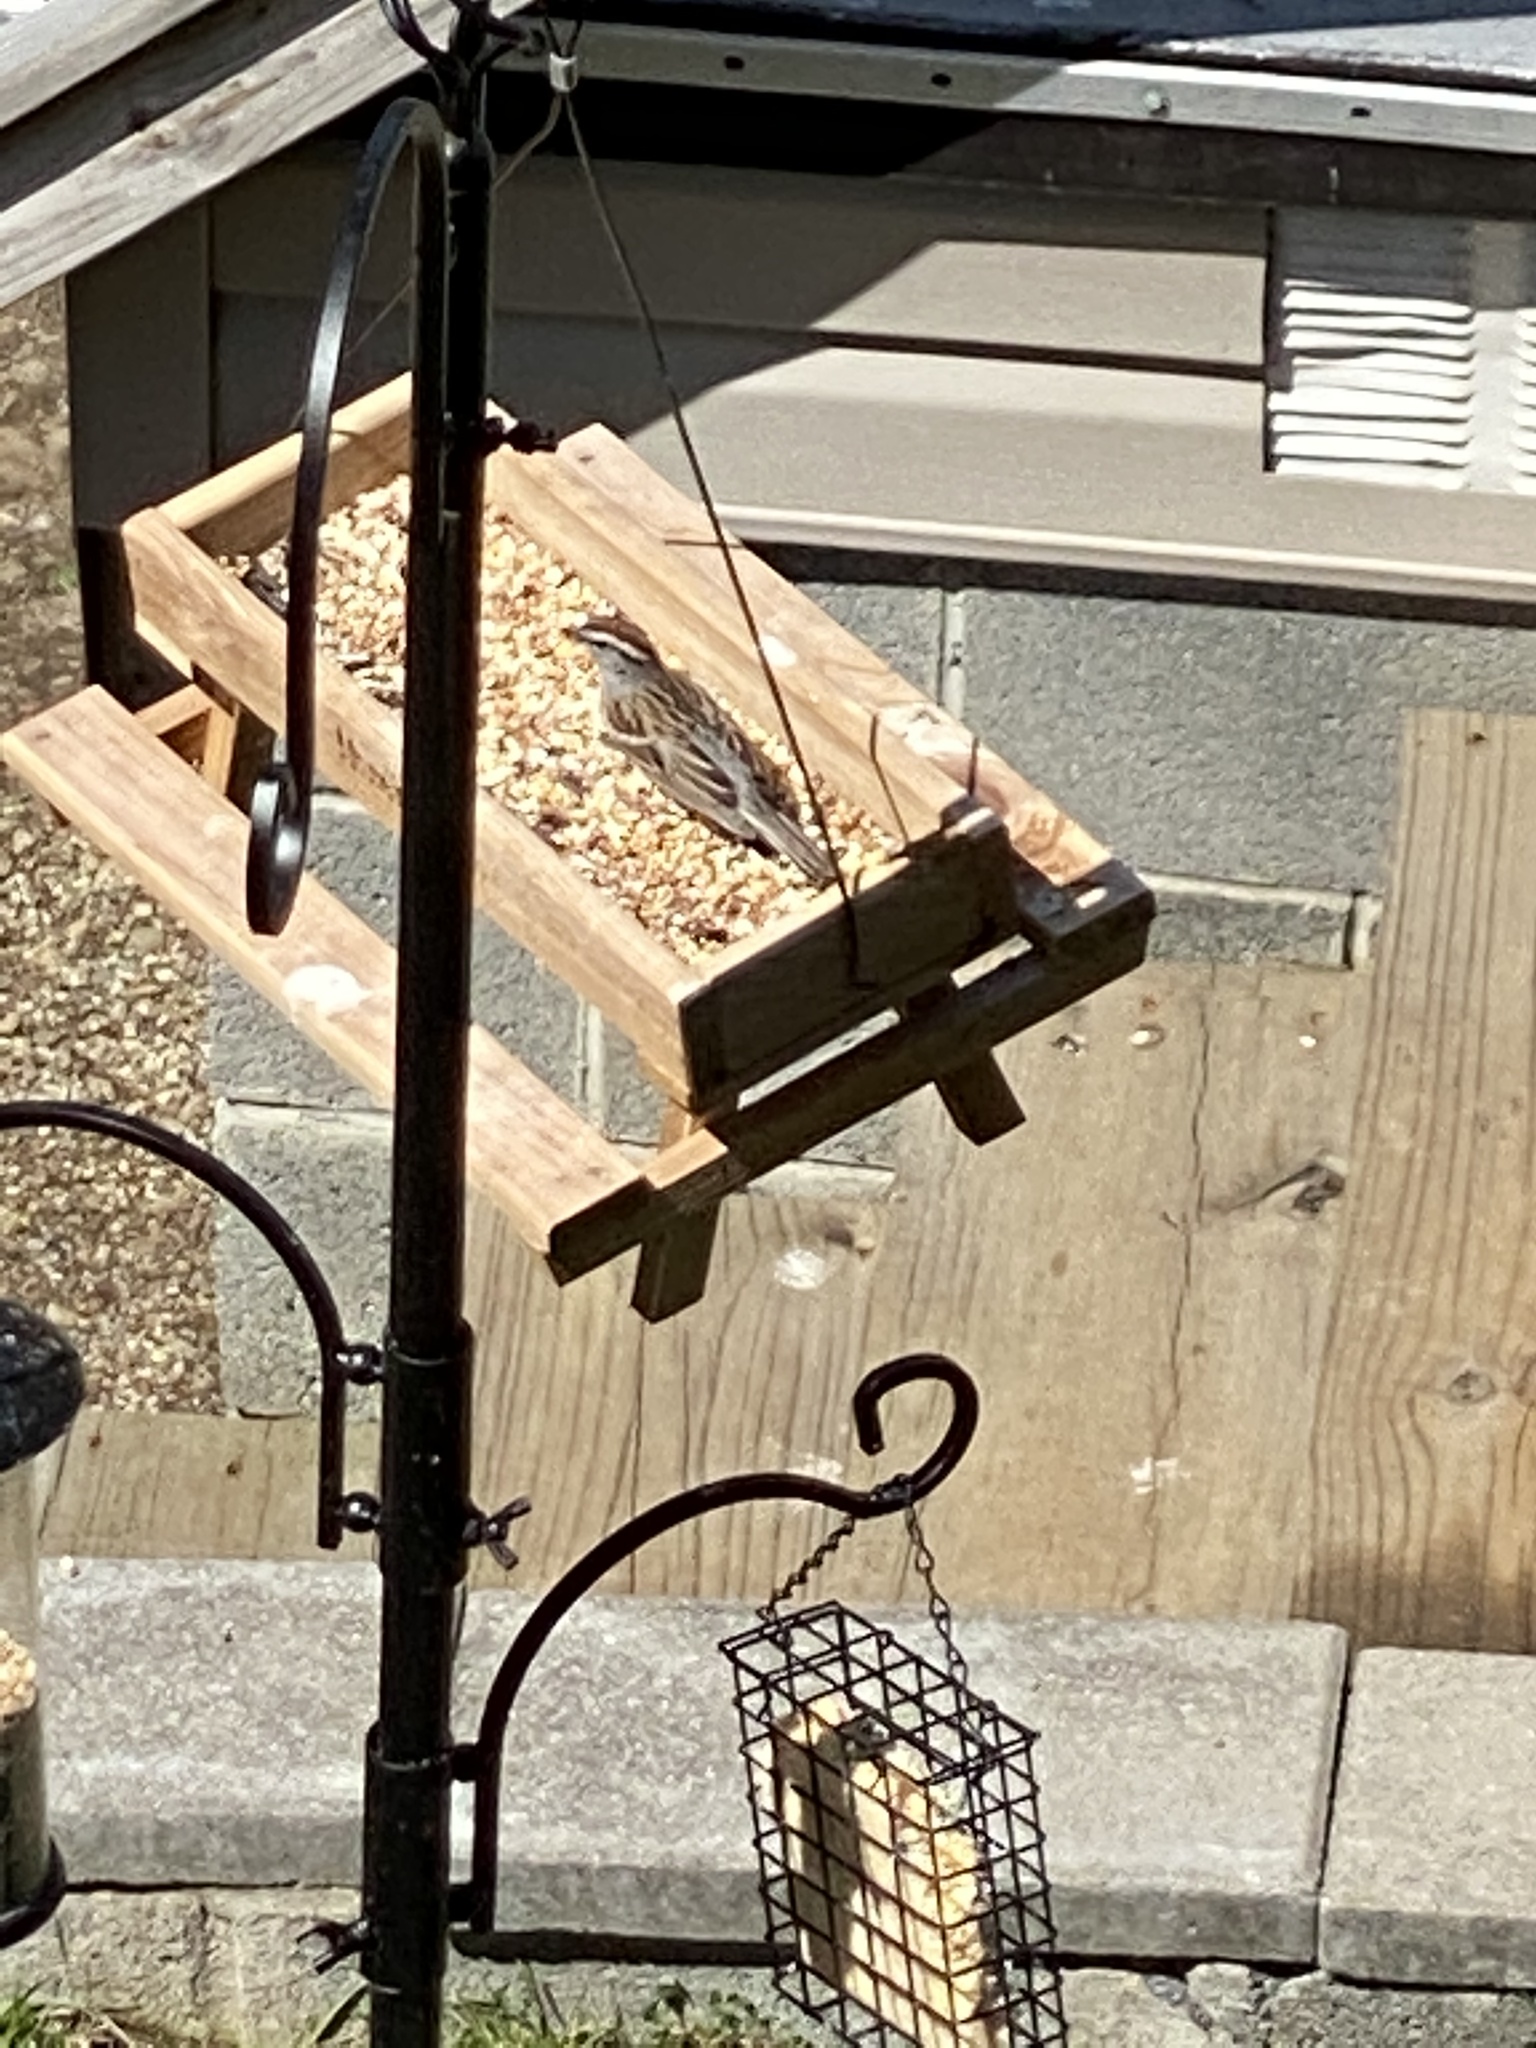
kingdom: Animalia
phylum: Chordata
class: Aves
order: Passeriformes
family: Passerellidae
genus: Spizella
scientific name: Spizella passerina
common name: Chipping sparrow
